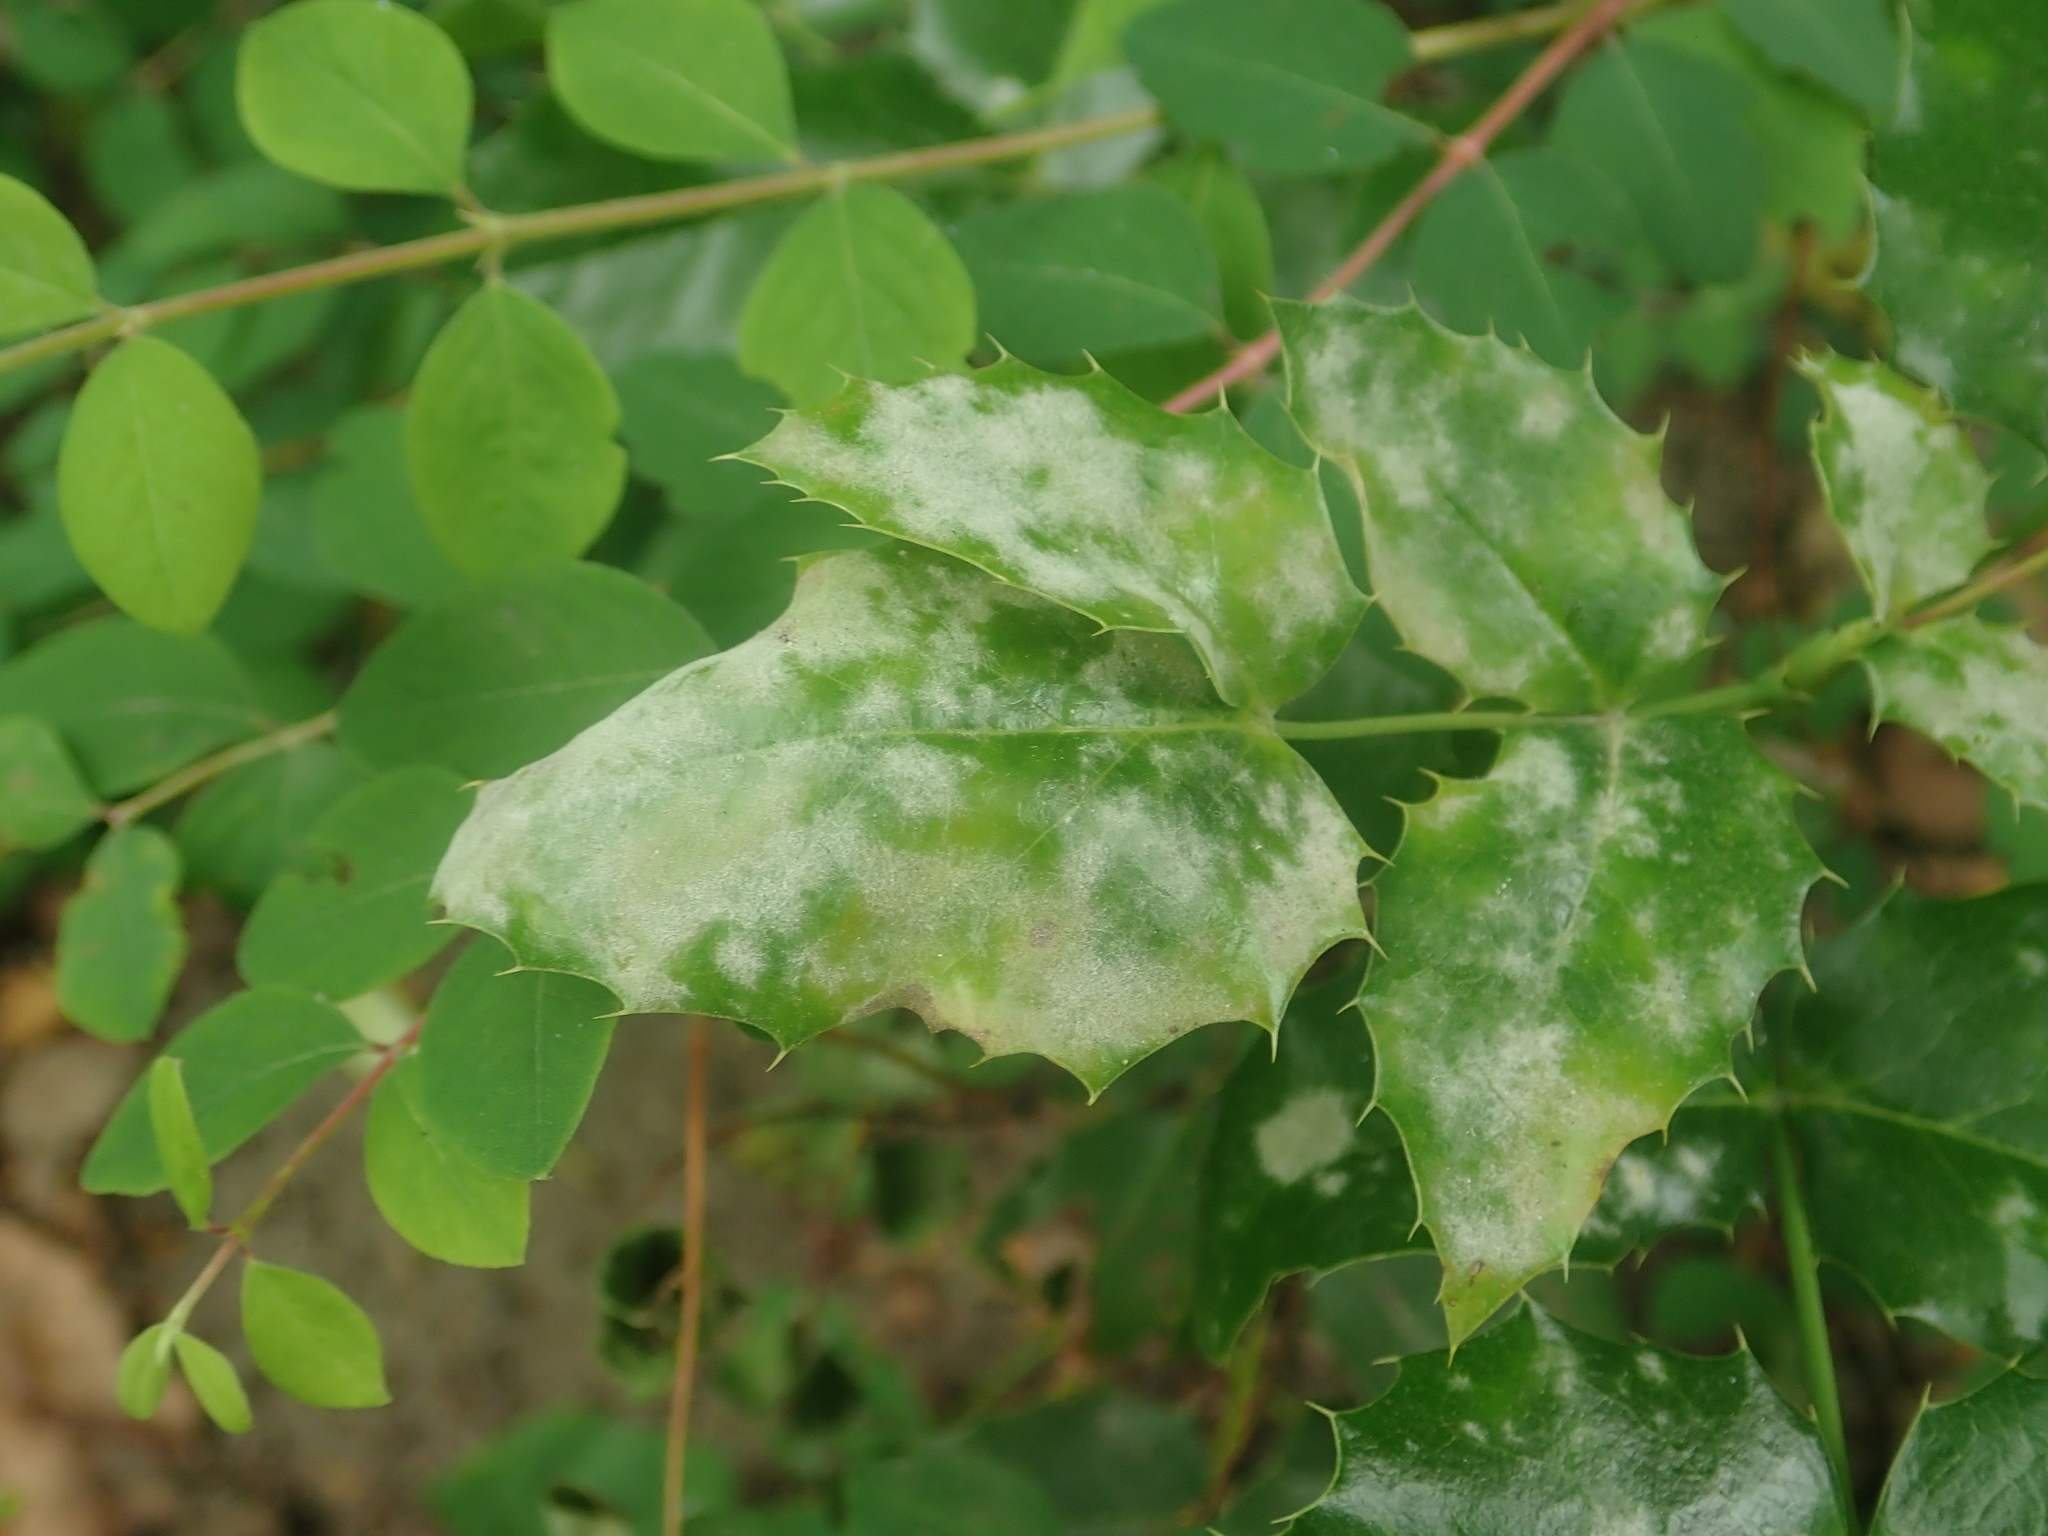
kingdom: Fungi
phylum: Ascomycota
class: Leotiomycetes
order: Helotiales
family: Erysiphaceae
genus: Erysiphe
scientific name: Erysiphe berberidis
